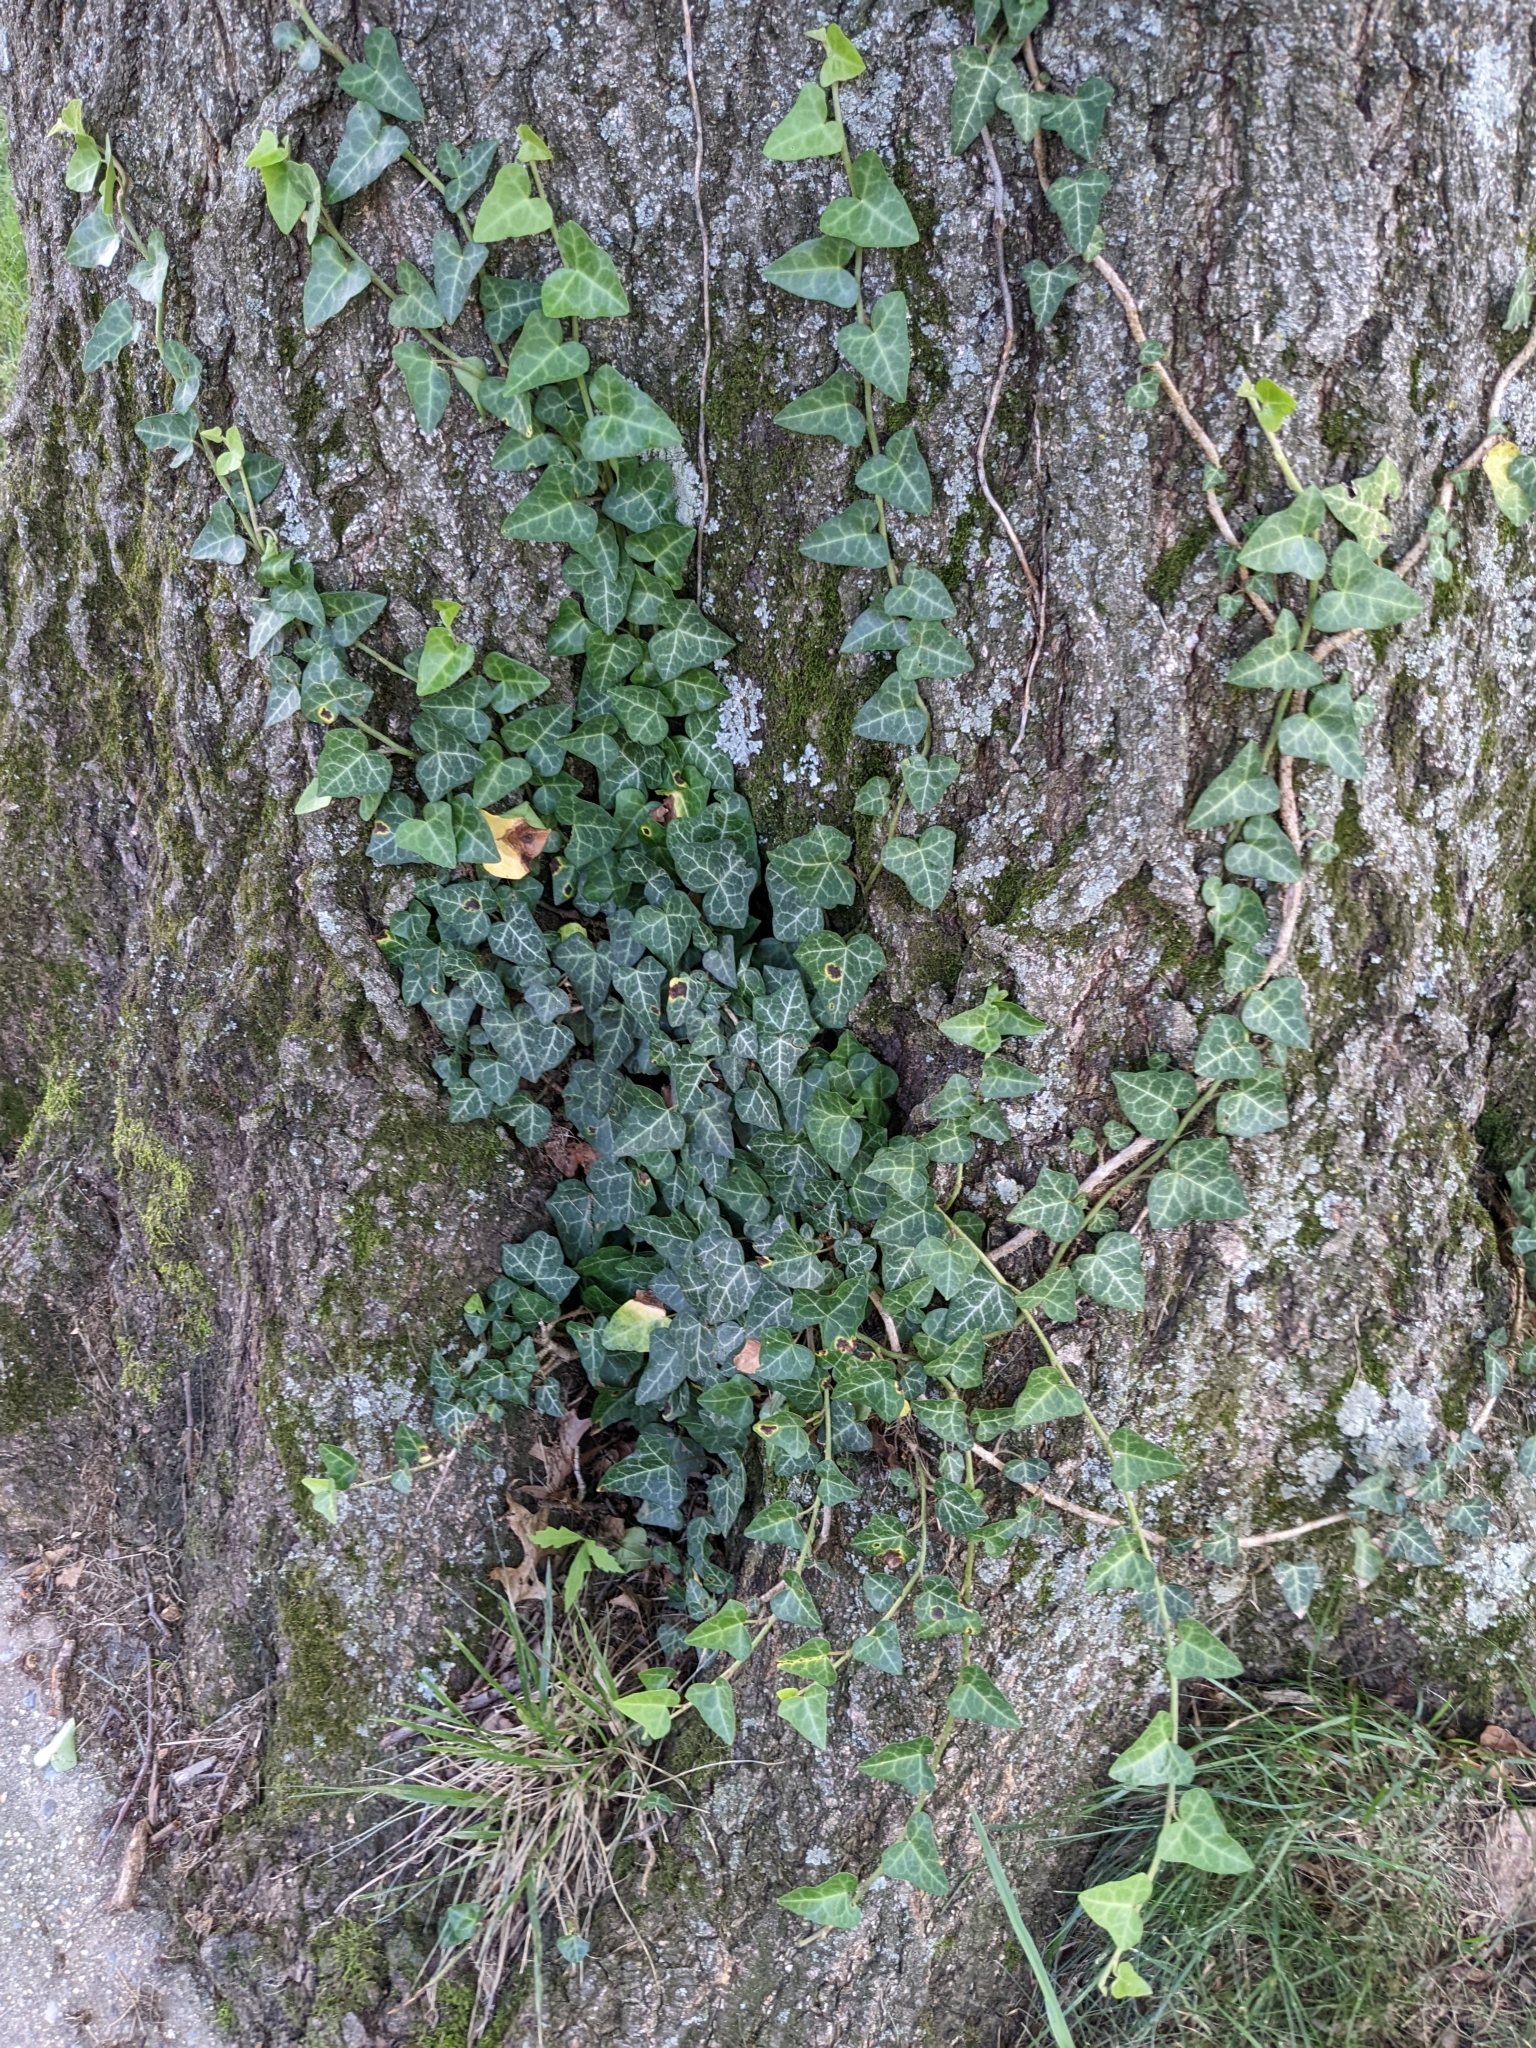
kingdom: Plantae
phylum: Tracheophyta
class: Magnoliopsida
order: Apiales
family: Araliaceae
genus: Hedera
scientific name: Hedera helix
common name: Ivy
